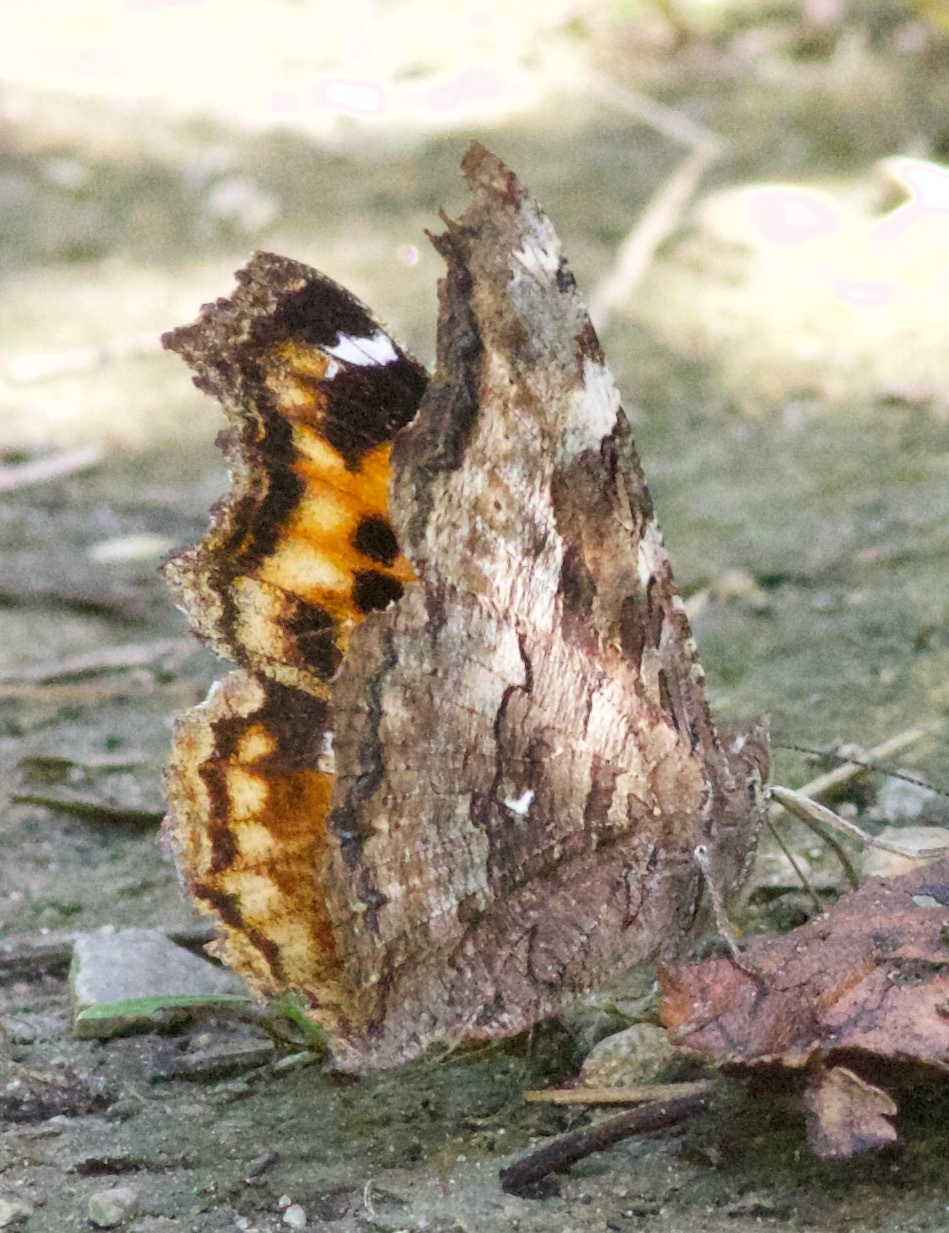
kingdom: Animalia
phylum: Arthropoda
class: Insecta
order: Lepidoptera
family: Nymphalidae
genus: Polygonia
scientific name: Polygonia vaualbum
